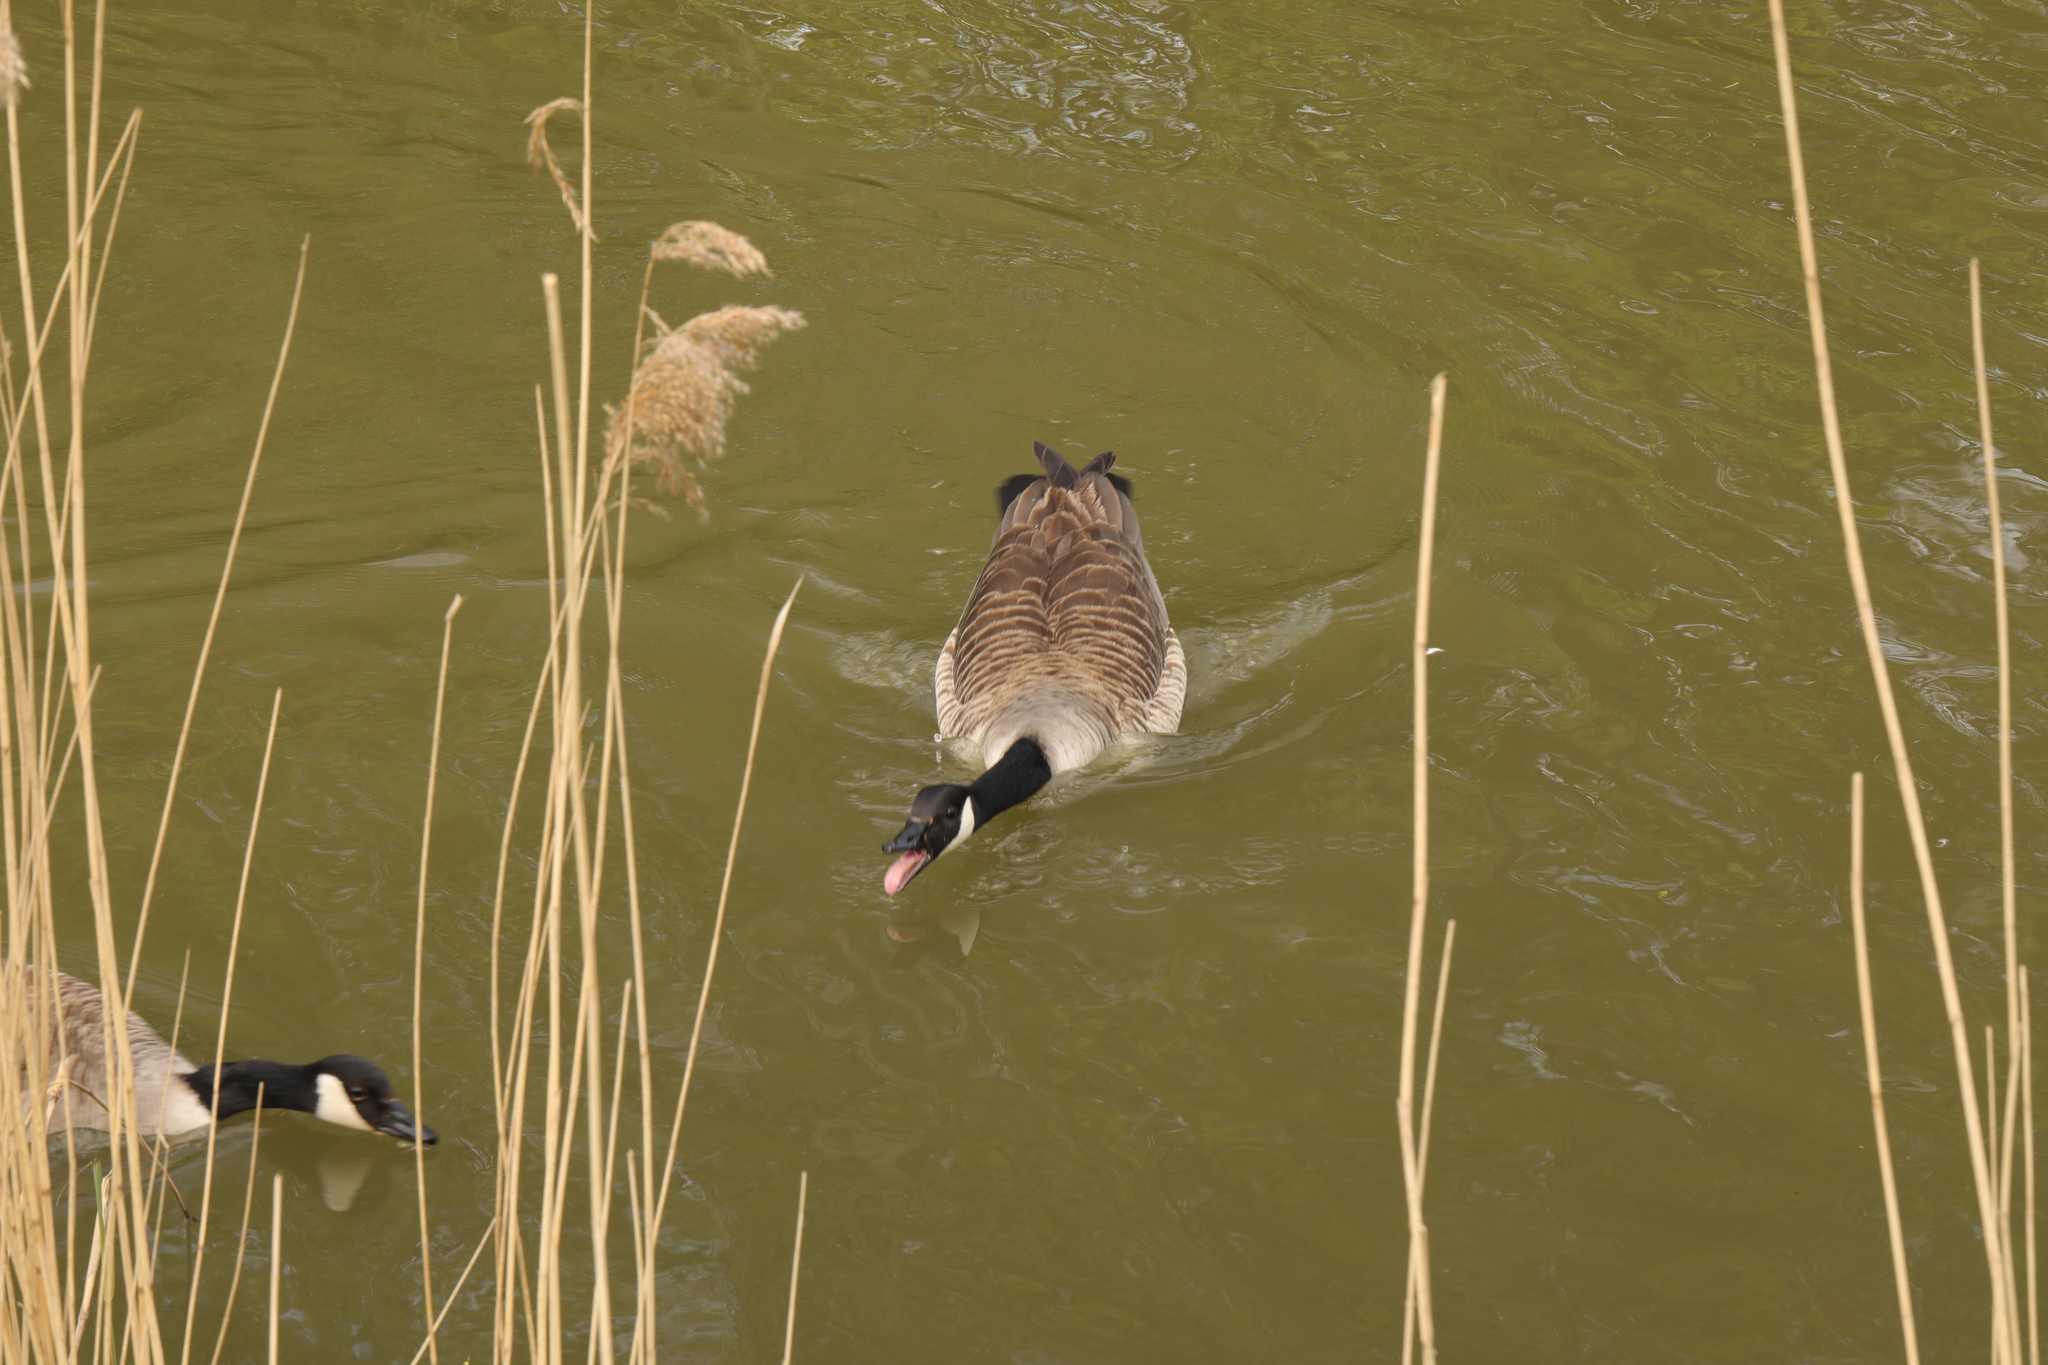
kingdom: Animalia
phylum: Chordata
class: Aves
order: Anseriformes
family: Anatidae
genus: Branta
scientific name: Branta canadensis
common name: Canada goose
